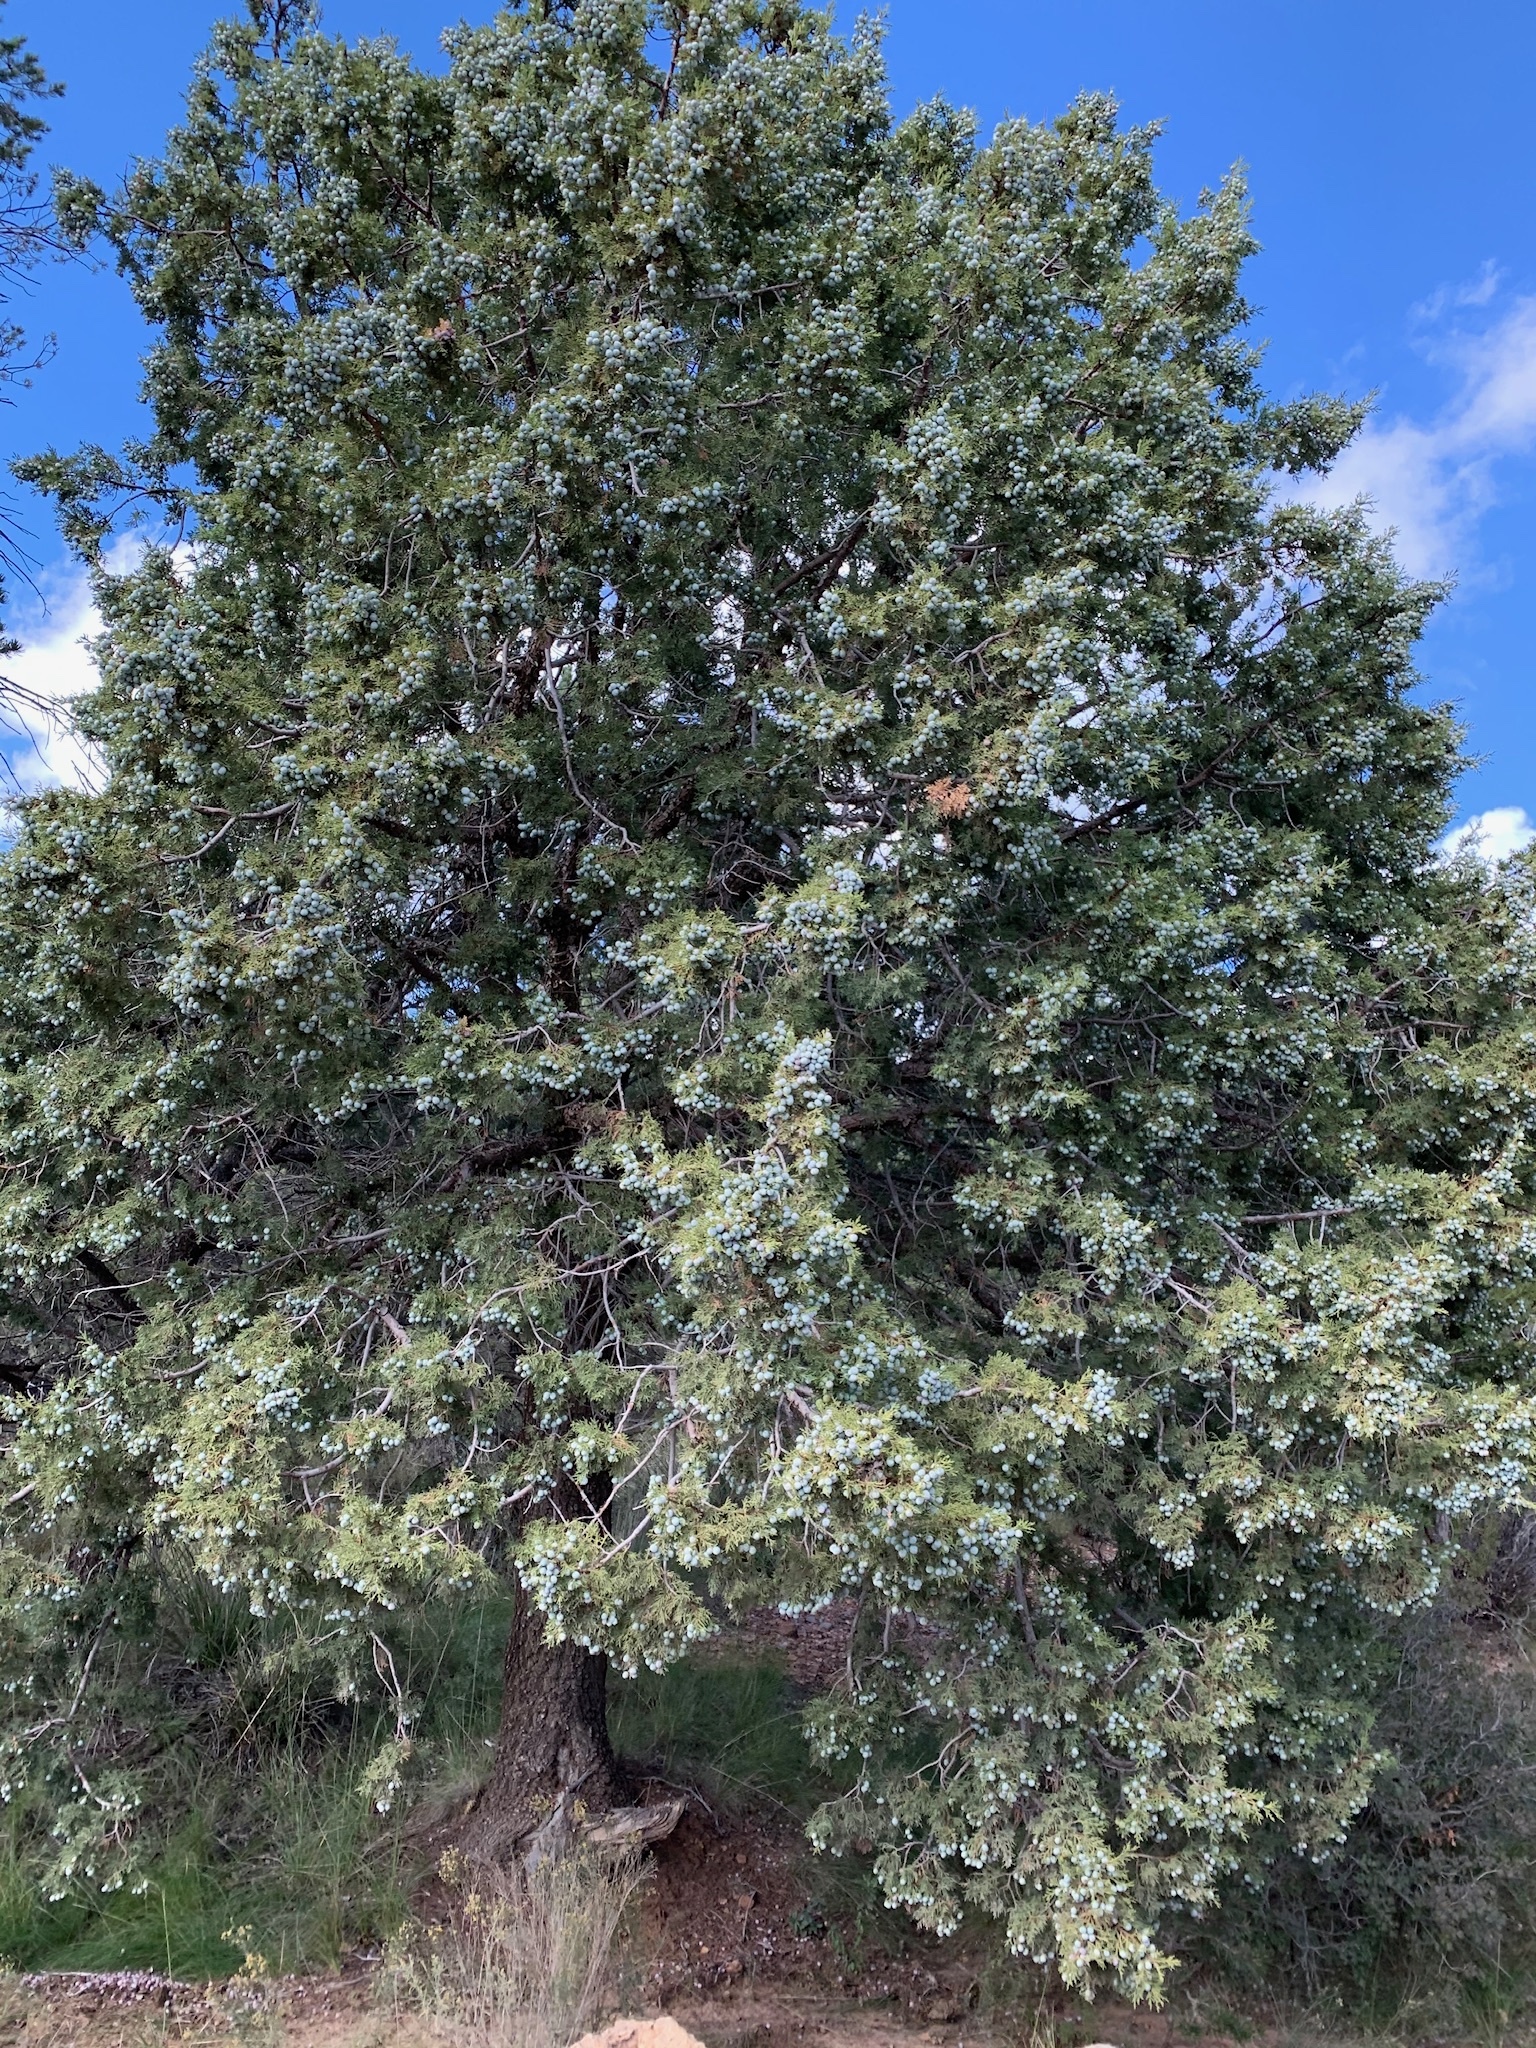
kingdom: Plantae
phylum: Tracheophyta
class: Pinopsida
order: Pinales
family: Cupressaceae
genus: Juniperus
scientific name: Juniperus deppeana
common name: Alligator juniper
